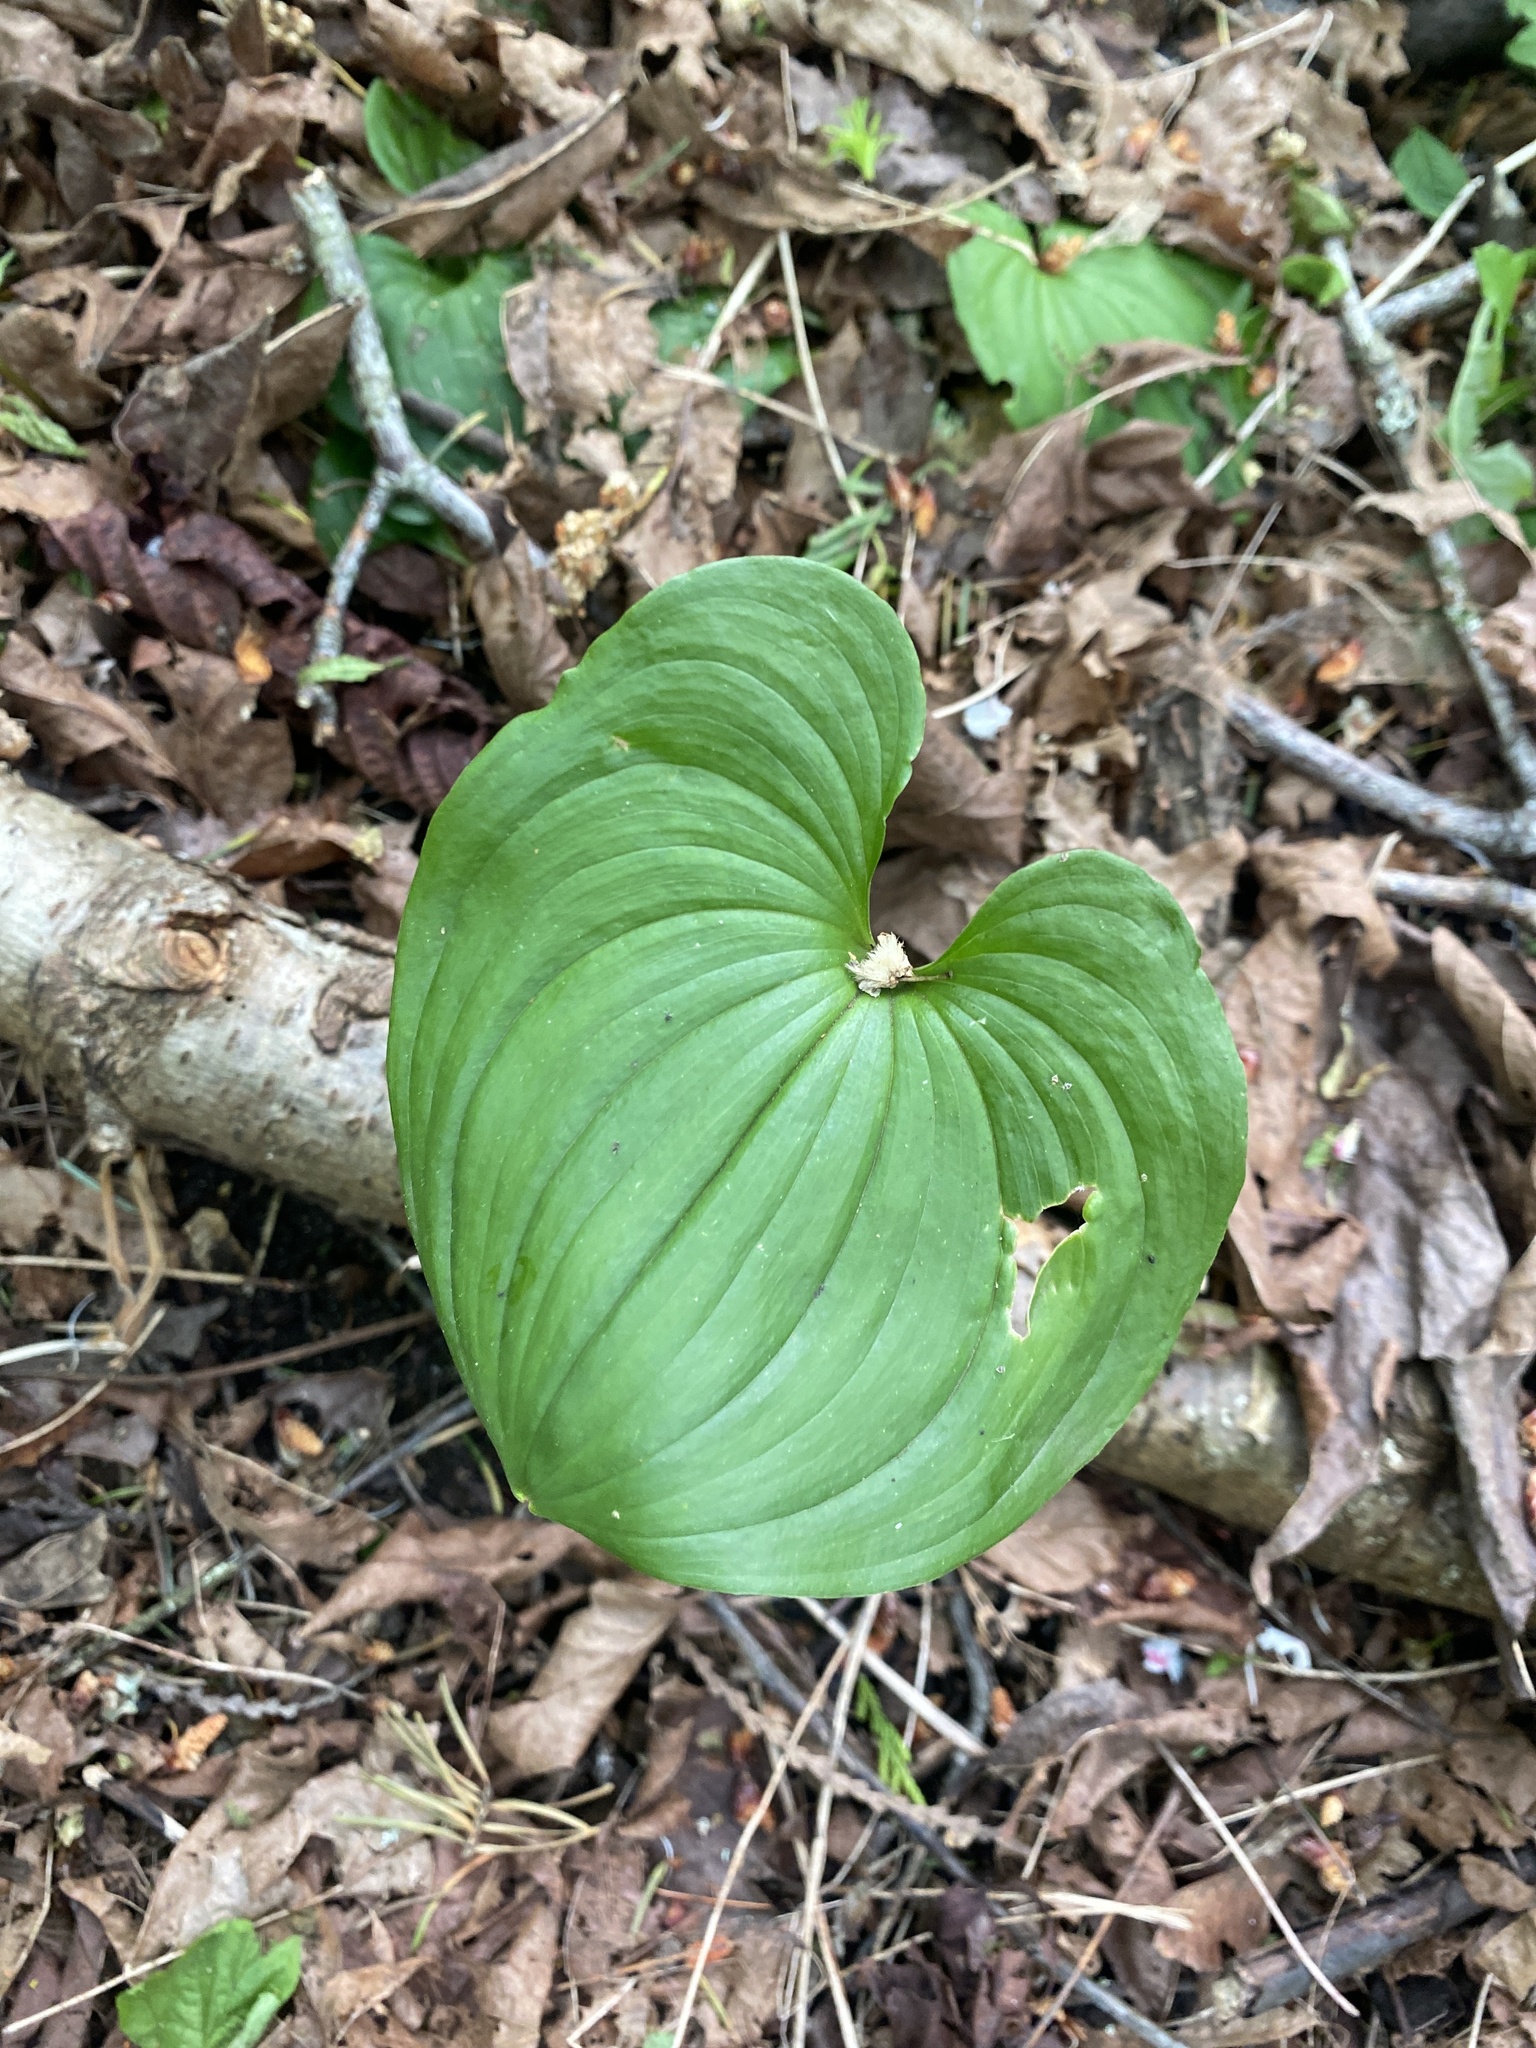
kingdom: Plantae
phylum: Tracheophyta
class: Liliopsida
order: Asparagales
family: Asparagaceae
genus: Maianthemum
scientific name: Maianthemum dilatatum
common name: False lily-of-the-valley
